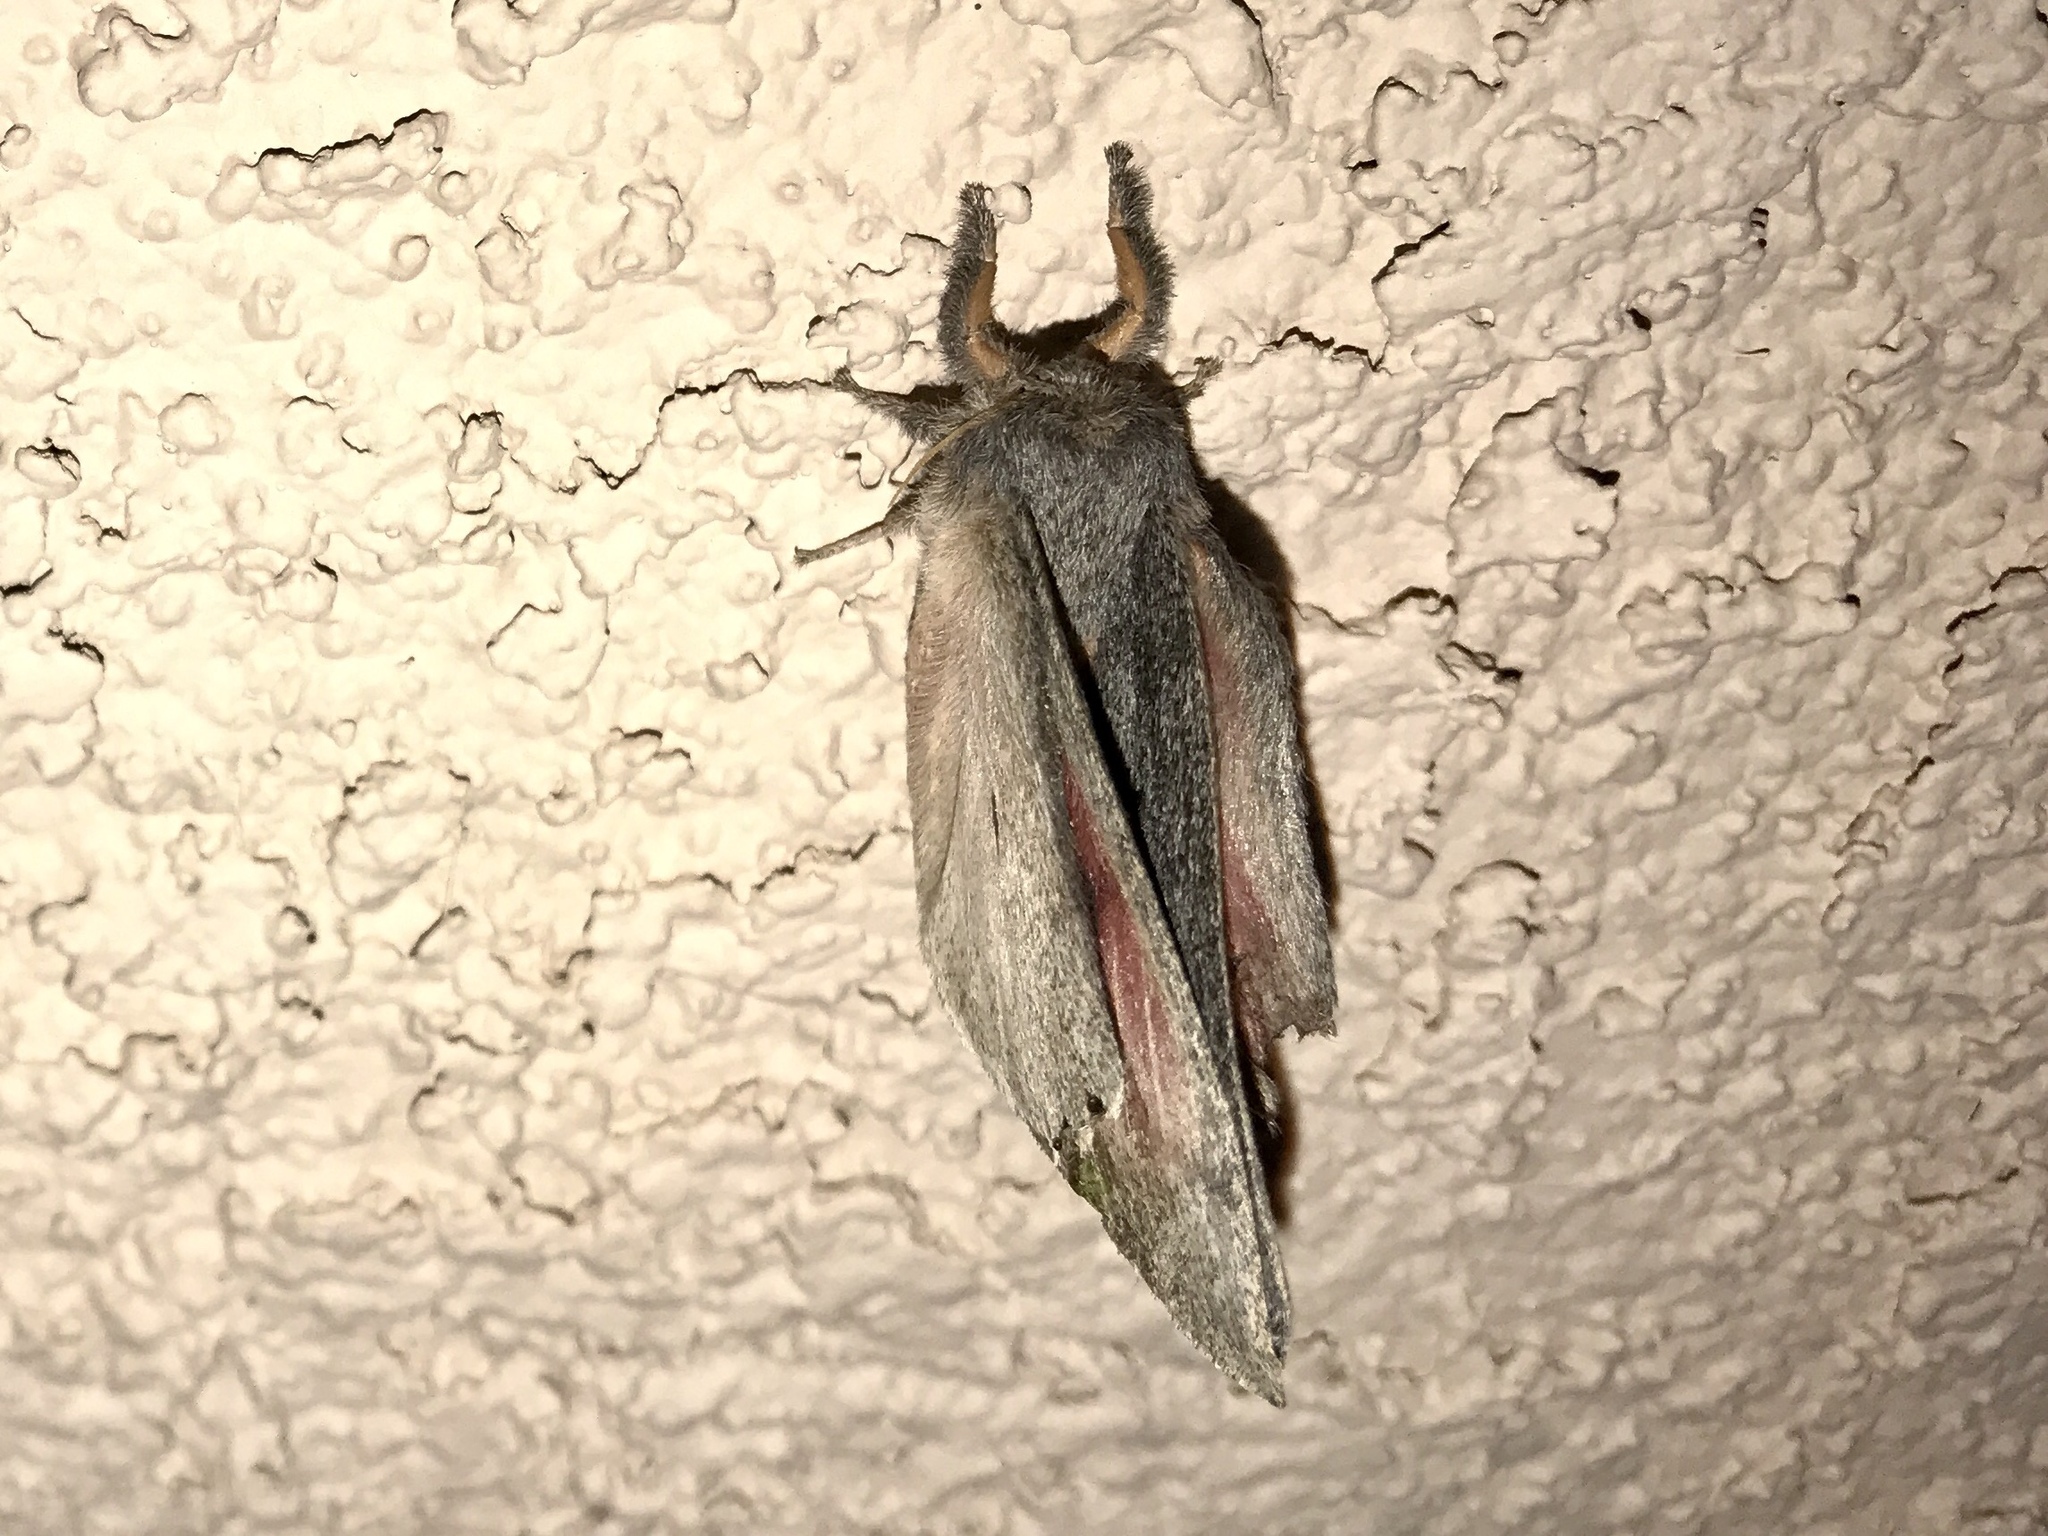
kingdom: Animalia
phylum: Arthropoda
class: Insecta
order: Lepidoptera
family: Saturniidae
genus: Syssphinx
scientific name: Syssphinx hubbardi
